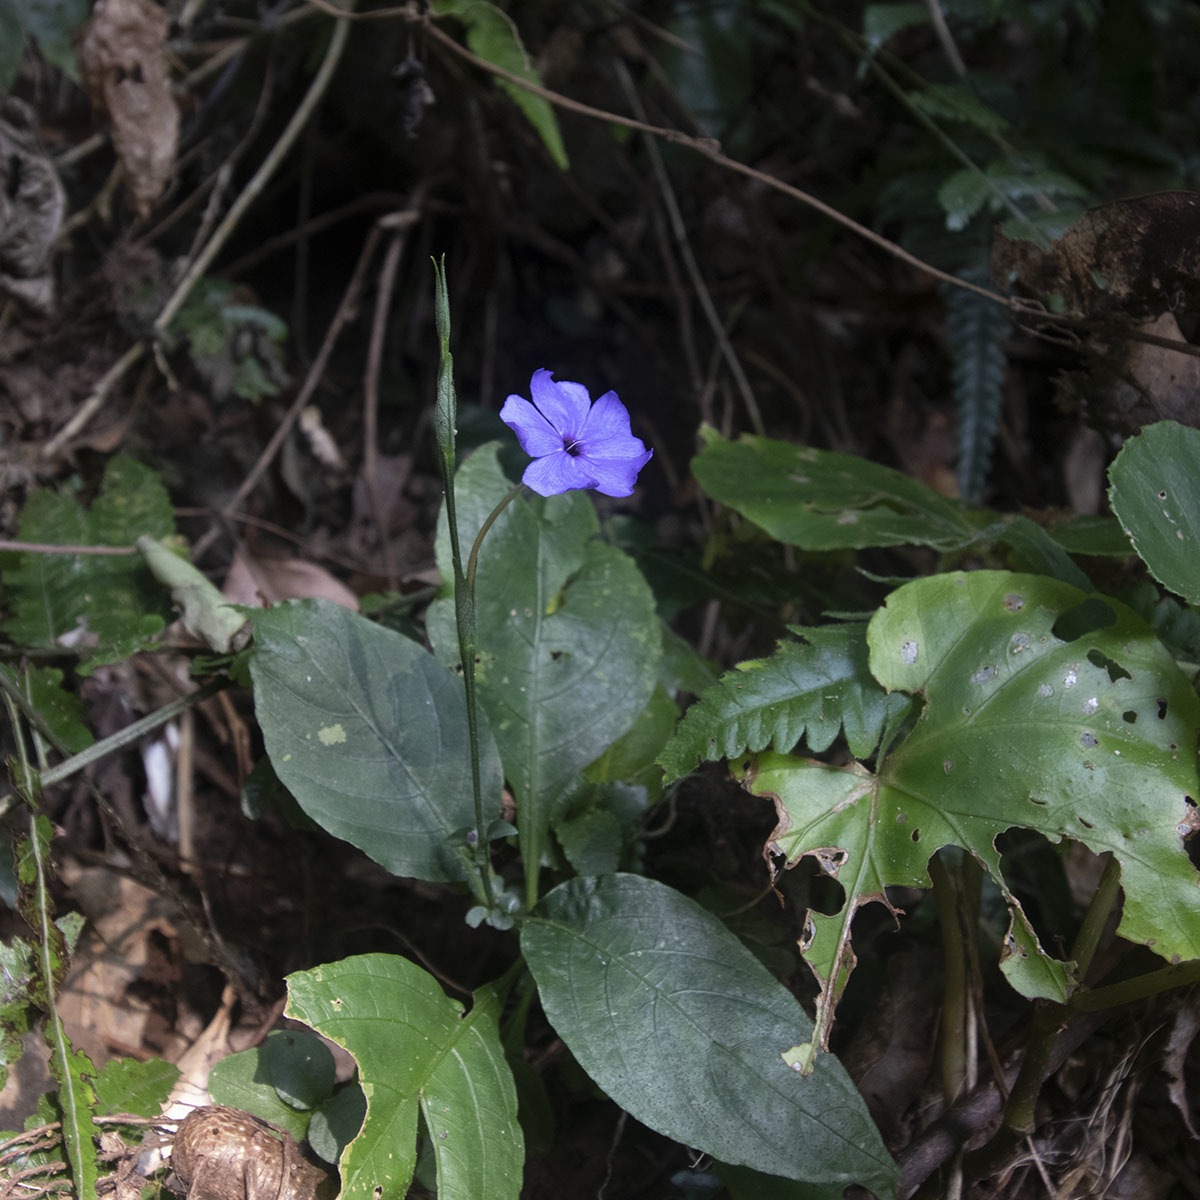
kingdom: Plantae
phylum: Tracheophyta
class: Magnoliopsida
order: Lamiales
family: Acanthaceae
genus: Eranthemum
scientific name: Eranthemum capense
